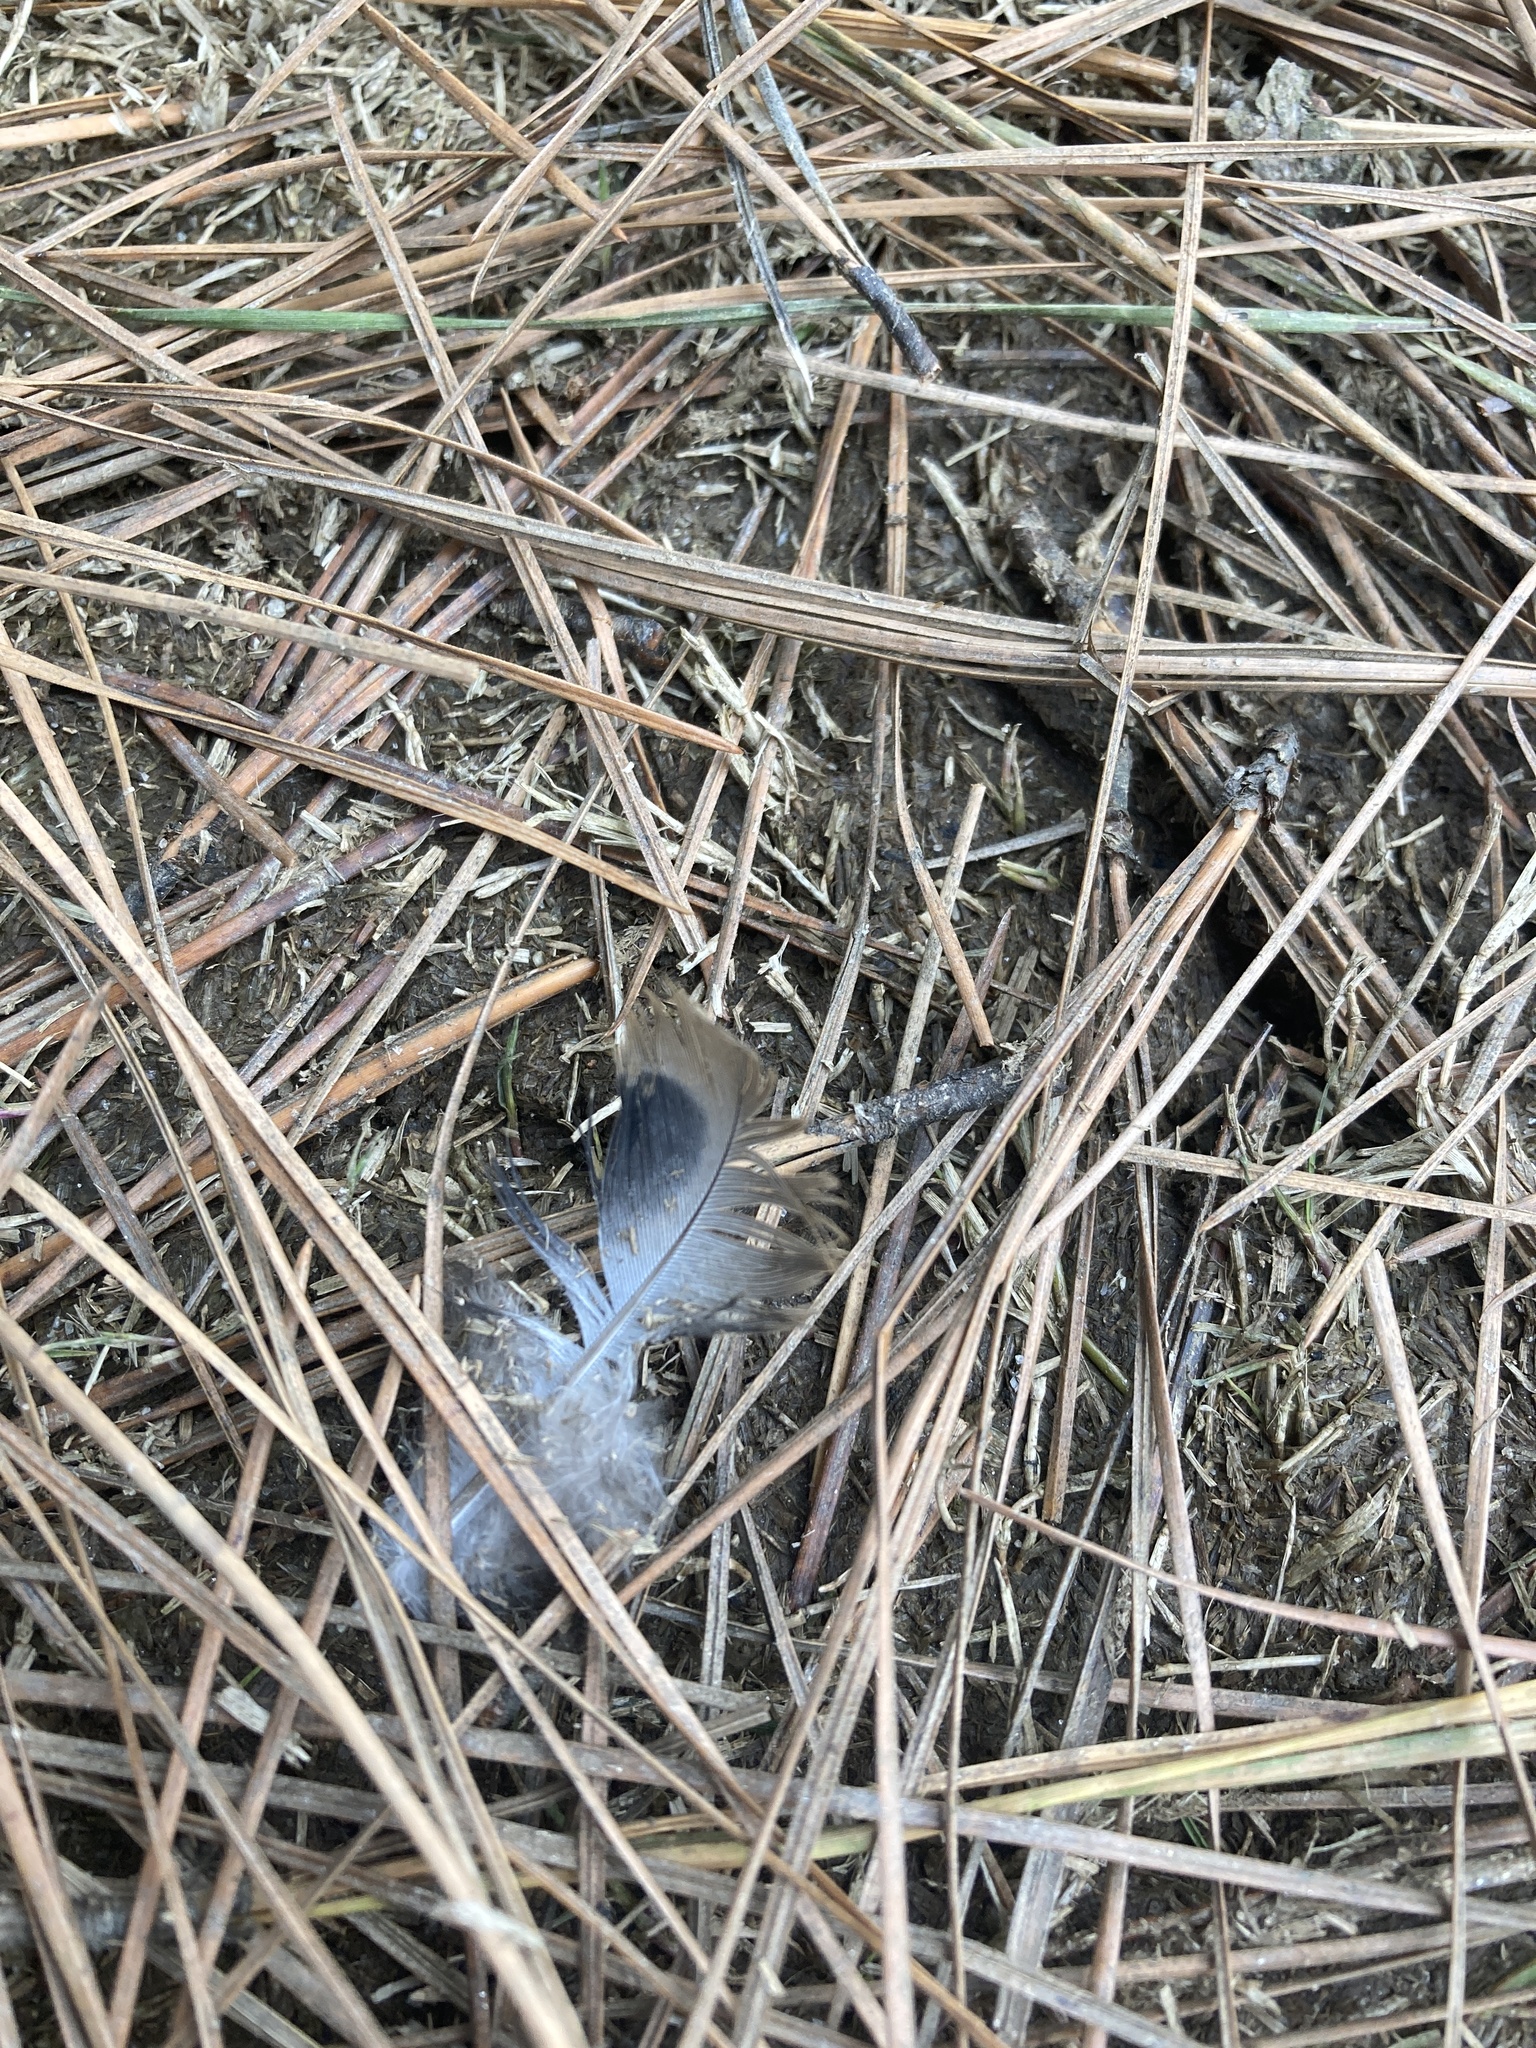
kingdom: Animalia
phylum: Chordata
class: Aves
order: Columbiformes
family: Columbidae
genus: Zenaida
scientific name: Zenaida macroura
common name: Mourning dove
